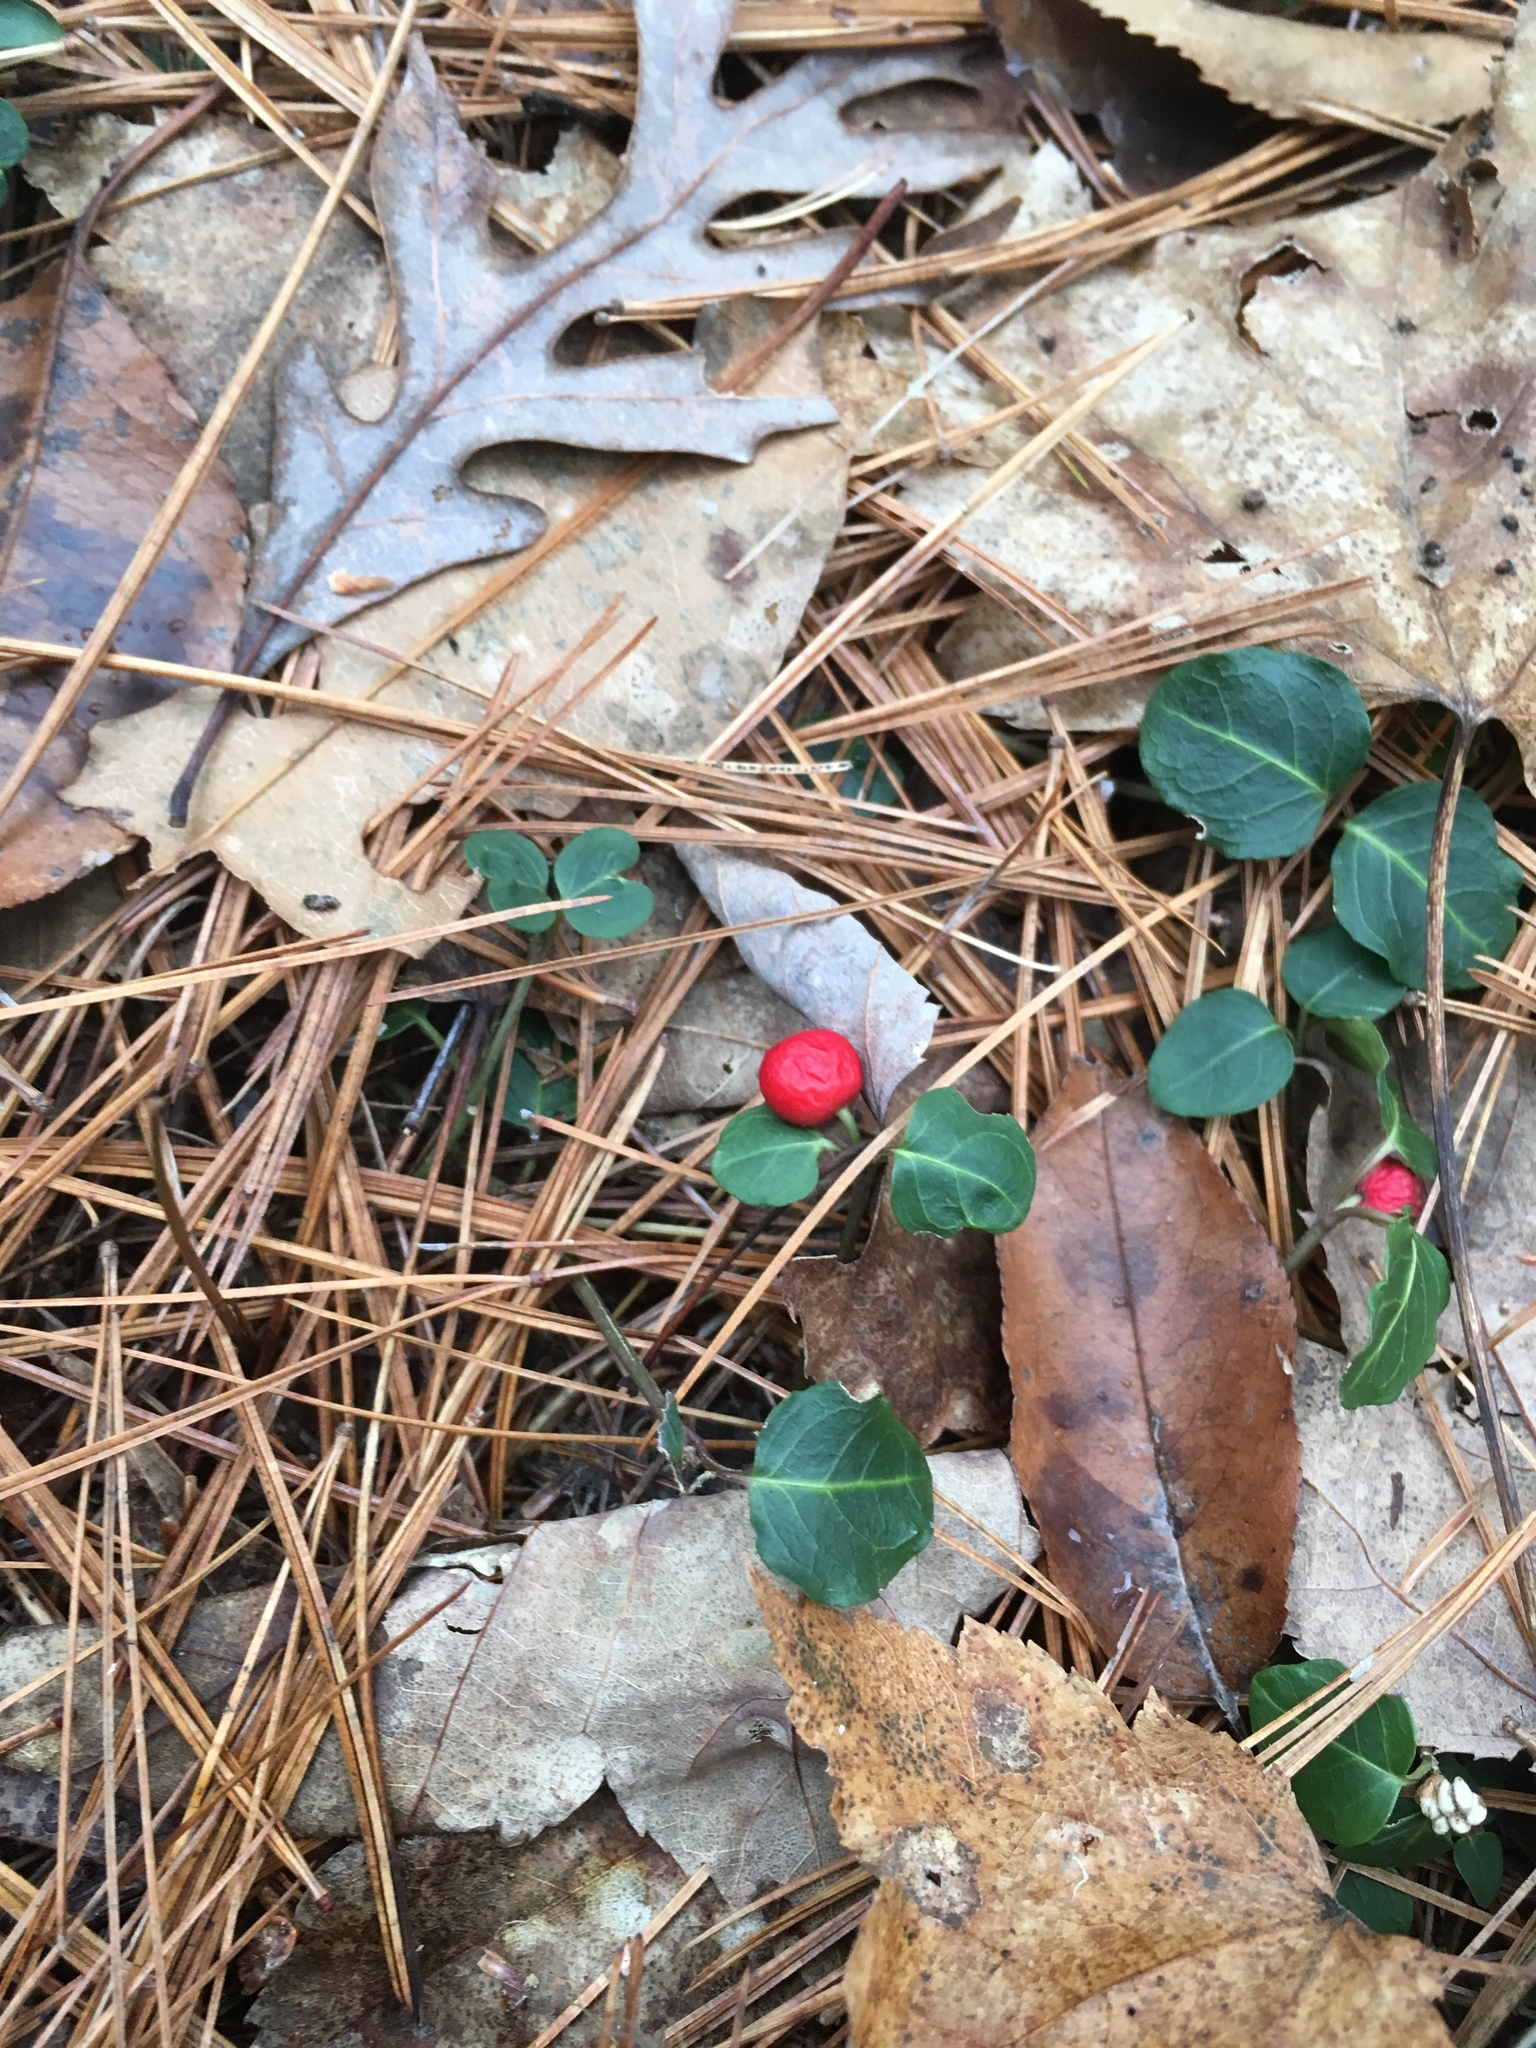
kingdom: Plantae
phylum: Tracheophyta
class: Magnoliopsida
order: Gentianales
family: Rubiaceae
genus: Mitchella
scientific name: Mitchella repens
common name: Partridge-berry
